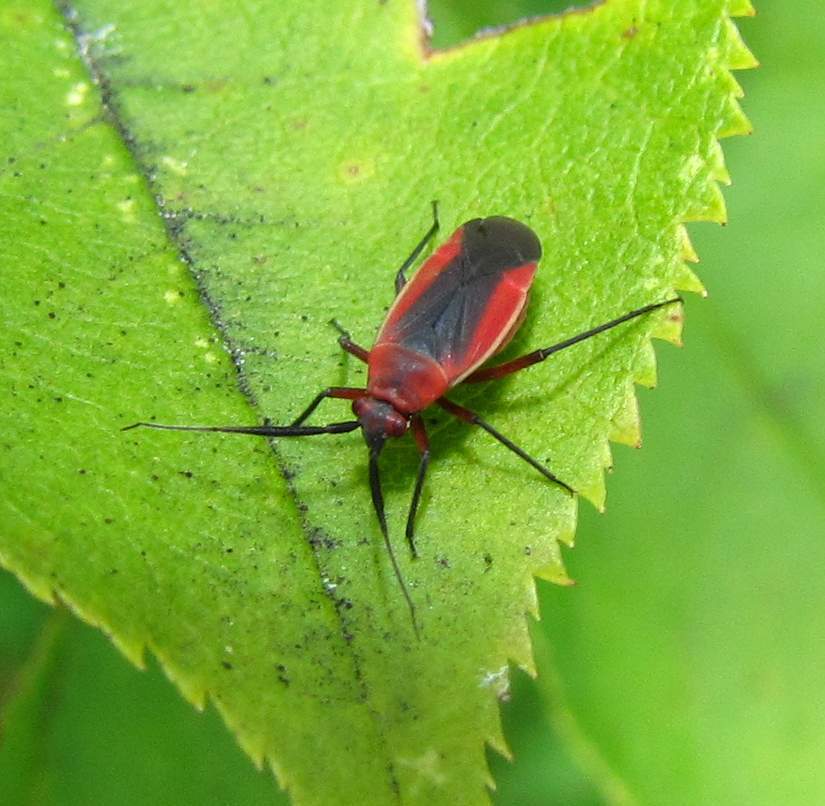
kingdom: Animalia
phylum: Arthropoda
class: Insecta
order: Hemiptera
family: Miridae
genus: Lopidea
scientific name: Lopidea instabilis
